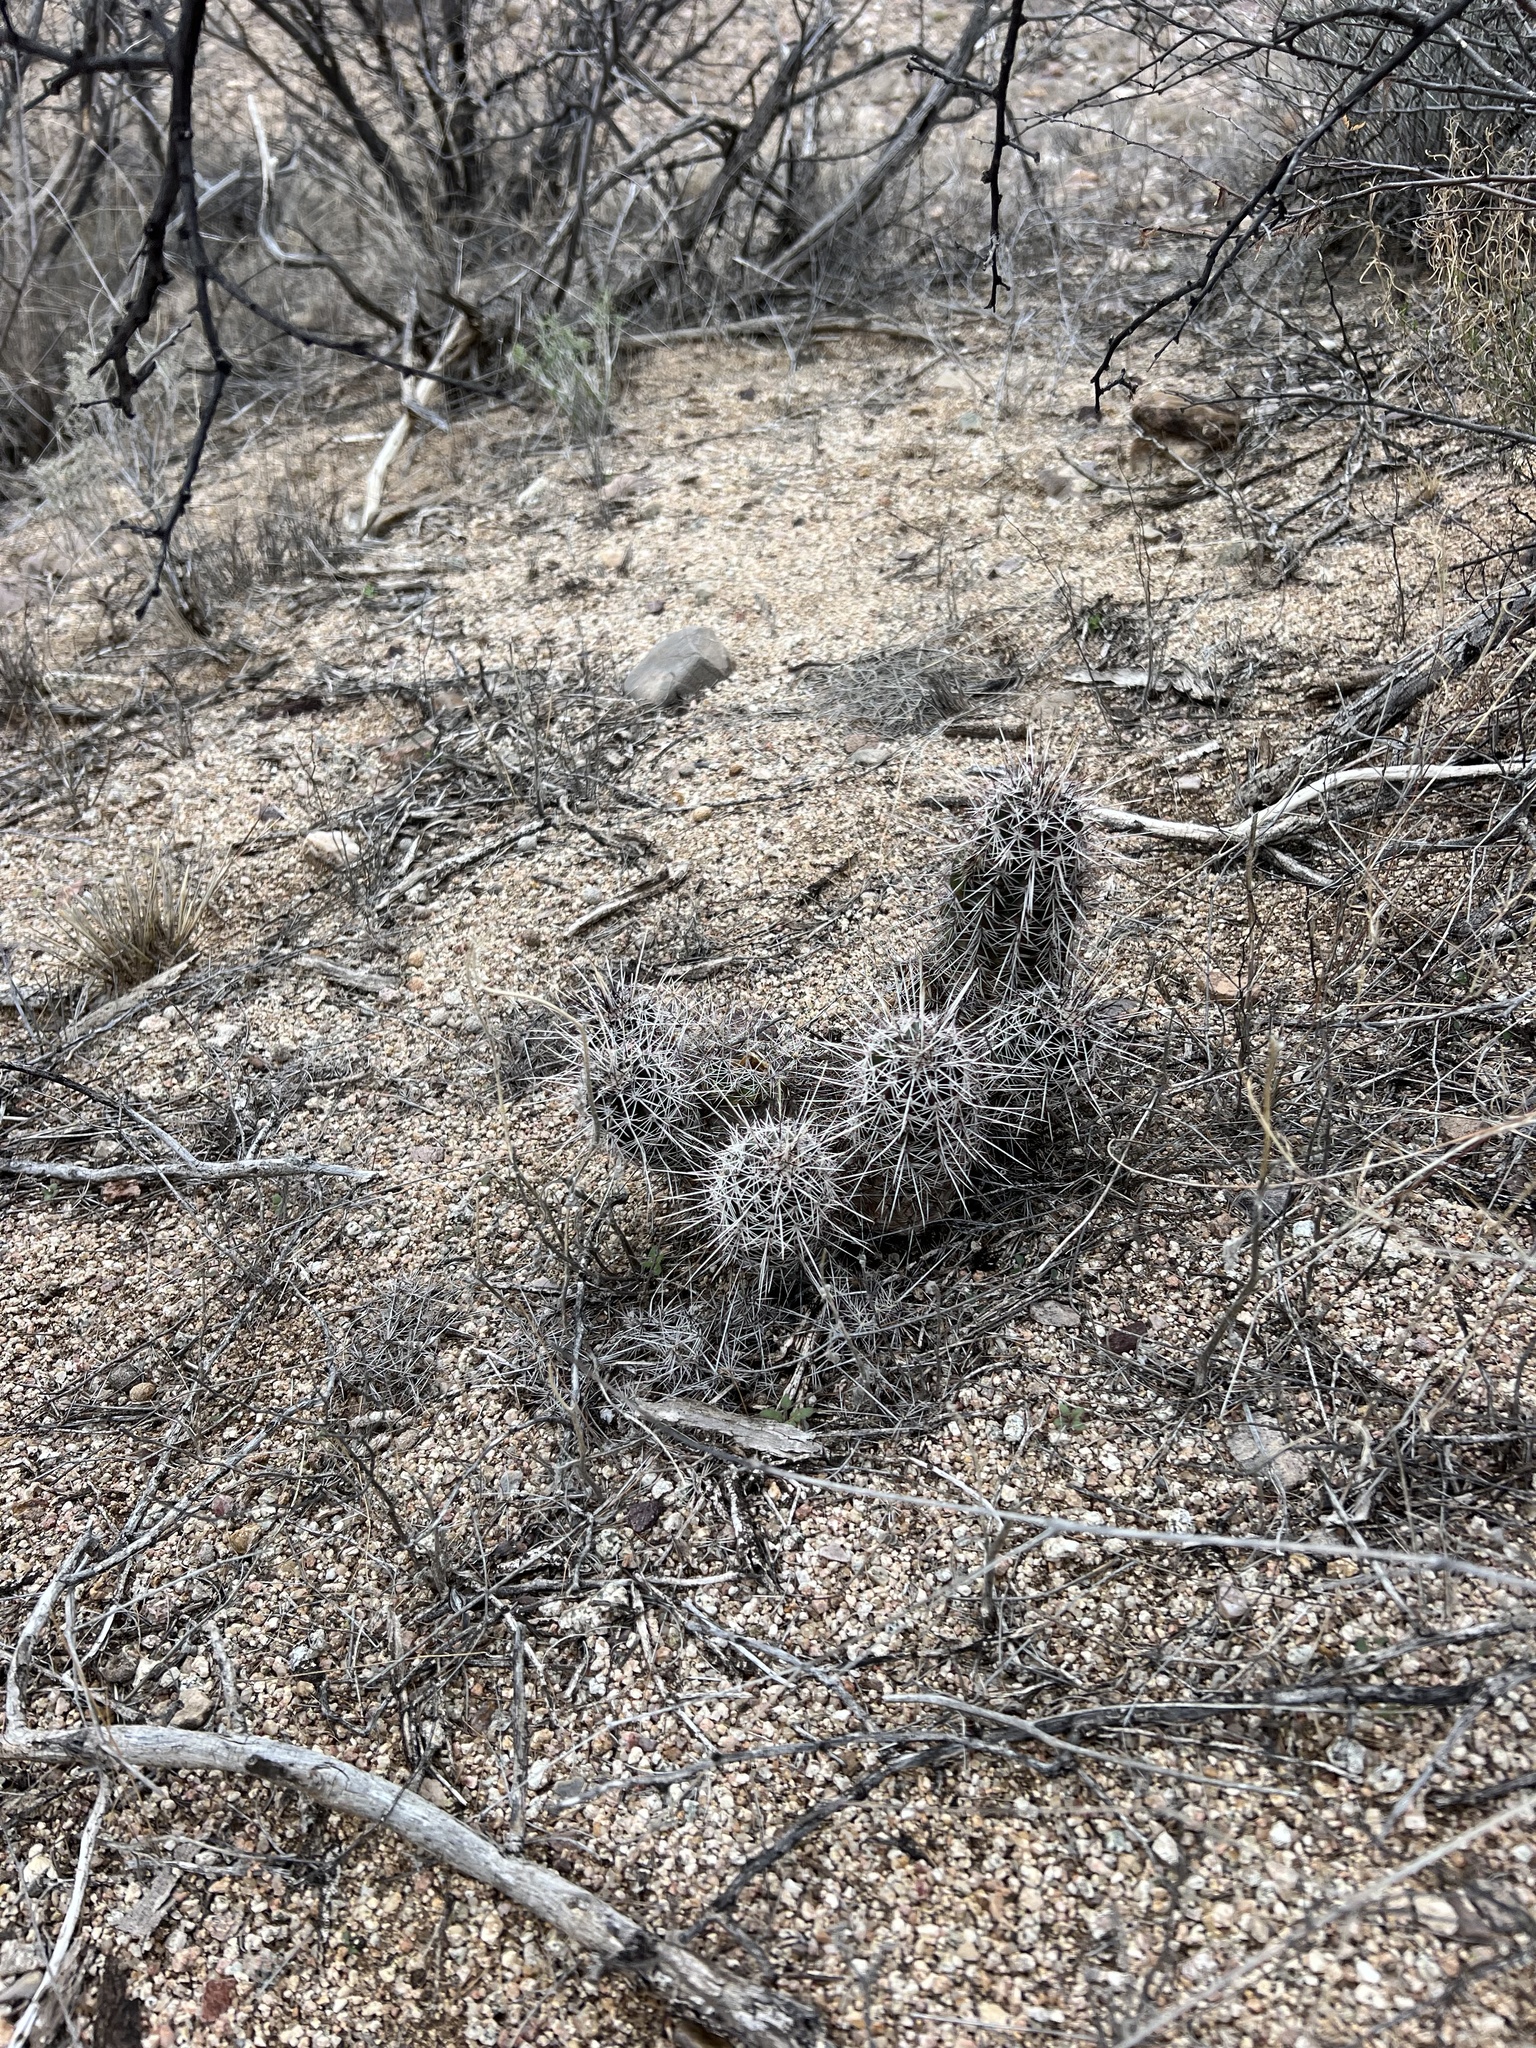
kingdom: Plantae
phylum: Tracheophyta
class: Magnoliopsida
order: Caryophyllales
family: Cactaceae
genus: Echinocereus
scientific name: Echinocereus fasciculatus
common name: Bundle hedgehog
